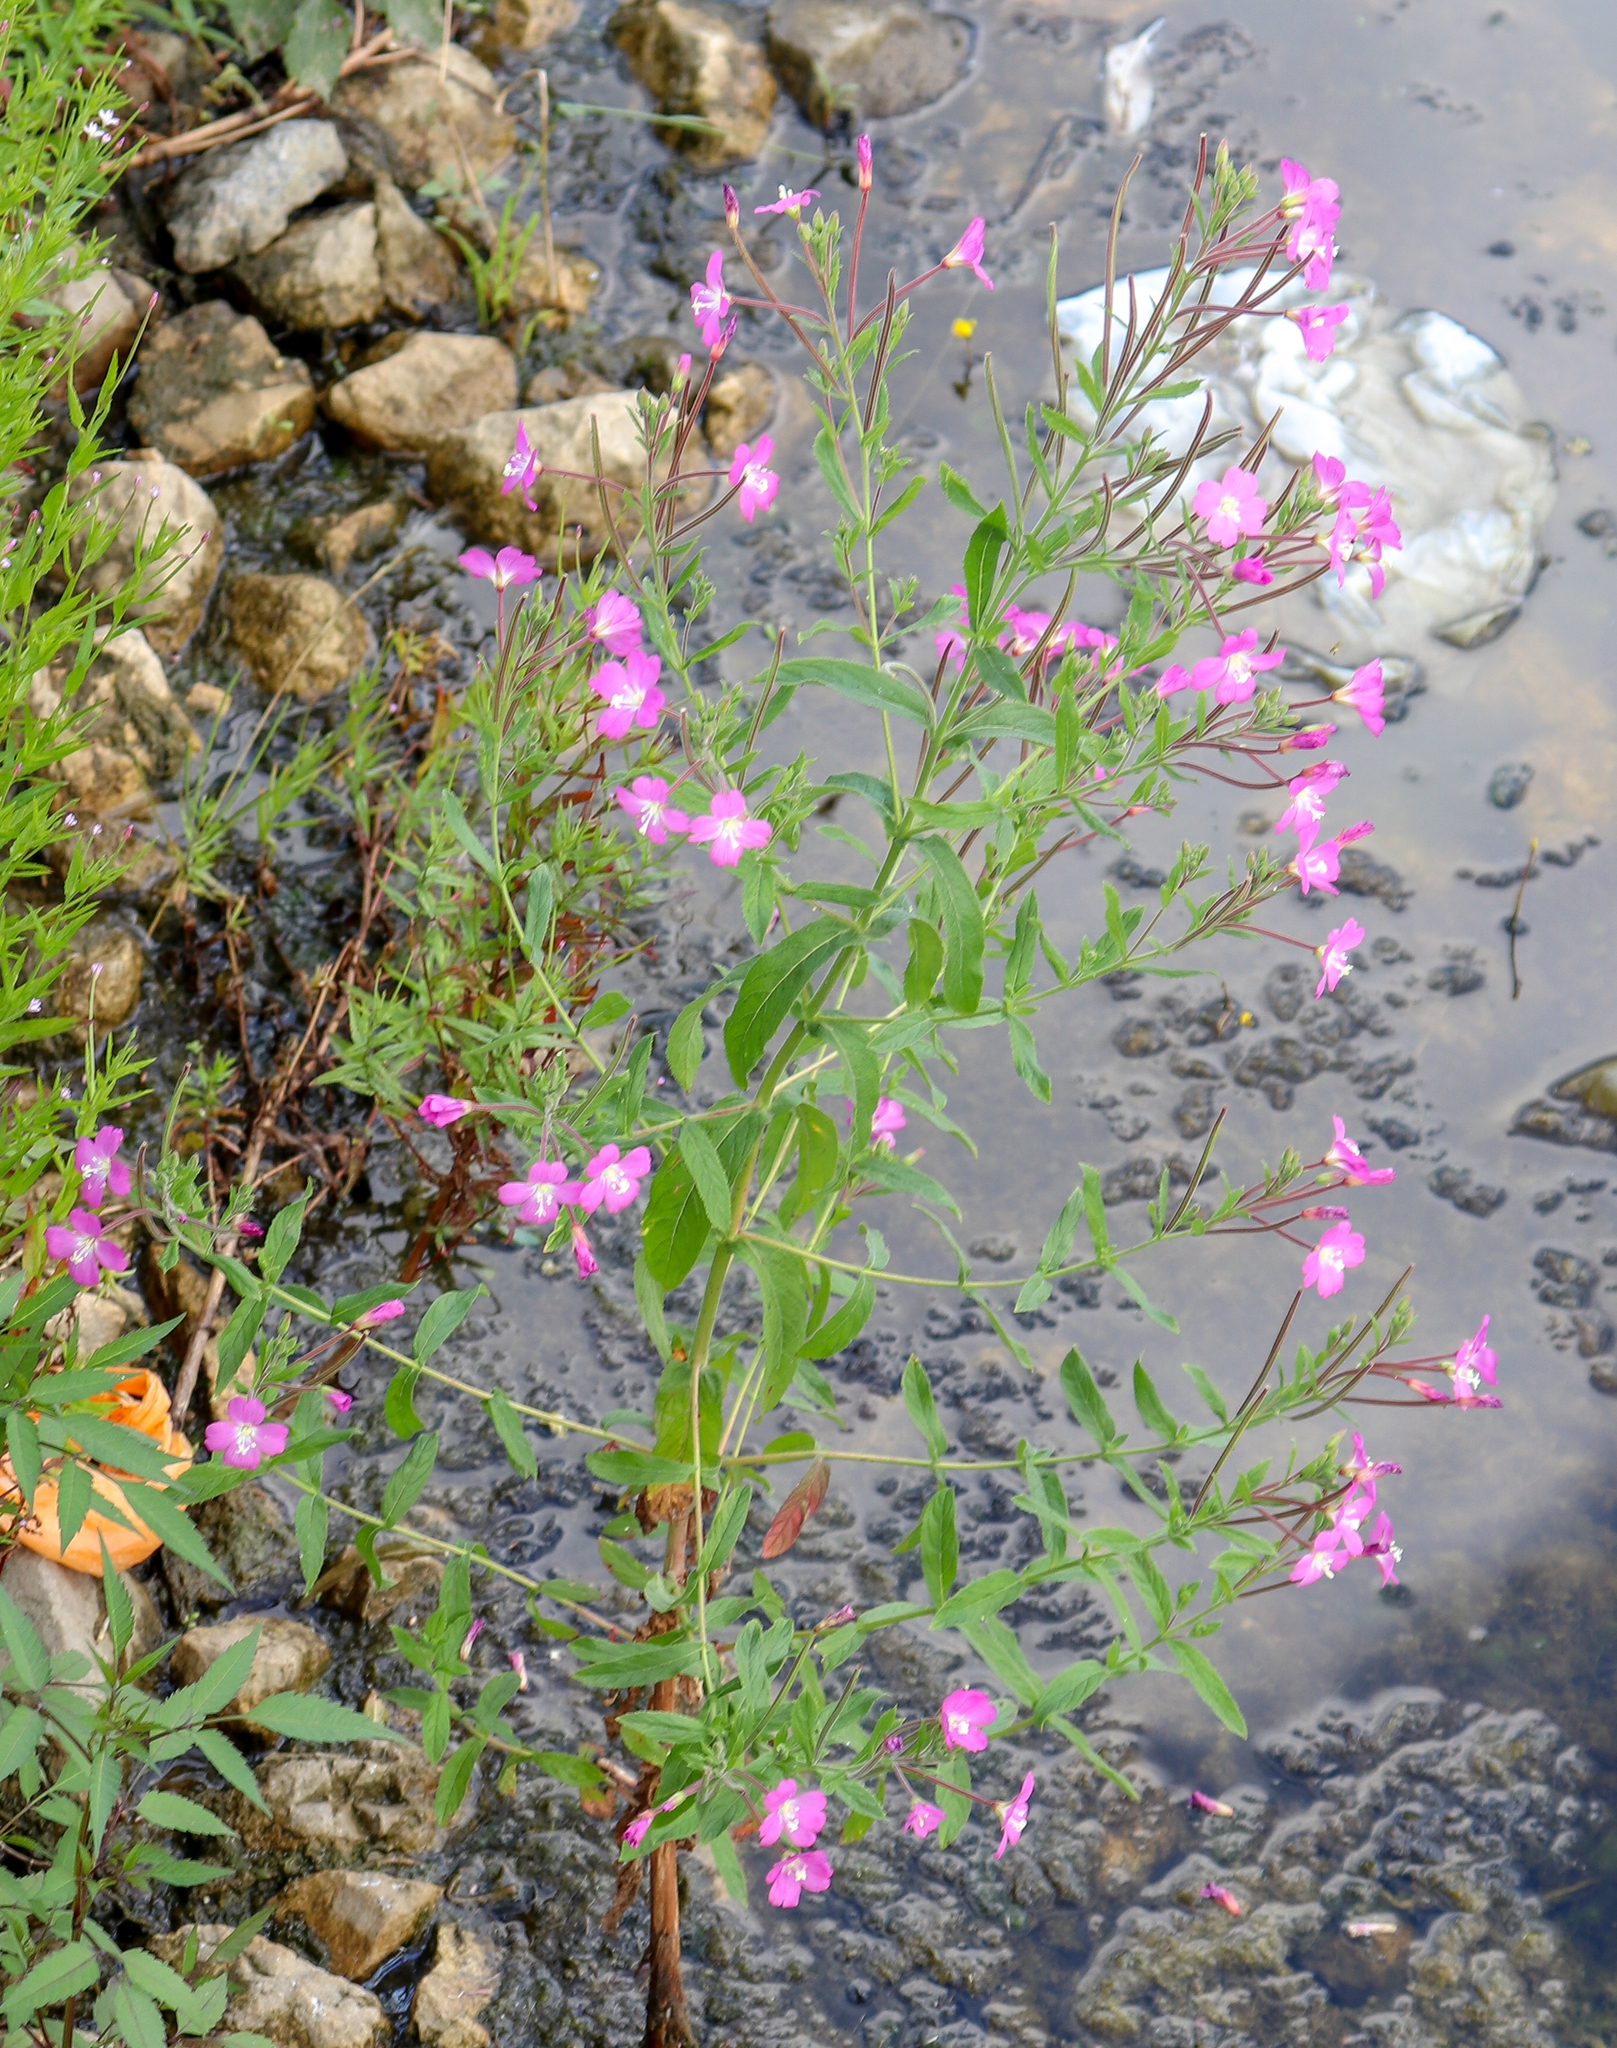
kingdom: Plantae
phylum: Tracheophyta
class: Magnoliopsida
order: Myrtales
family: Onagraceae
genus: Epilobium
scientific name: Epilobium hirsutum
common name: Great willowherb
